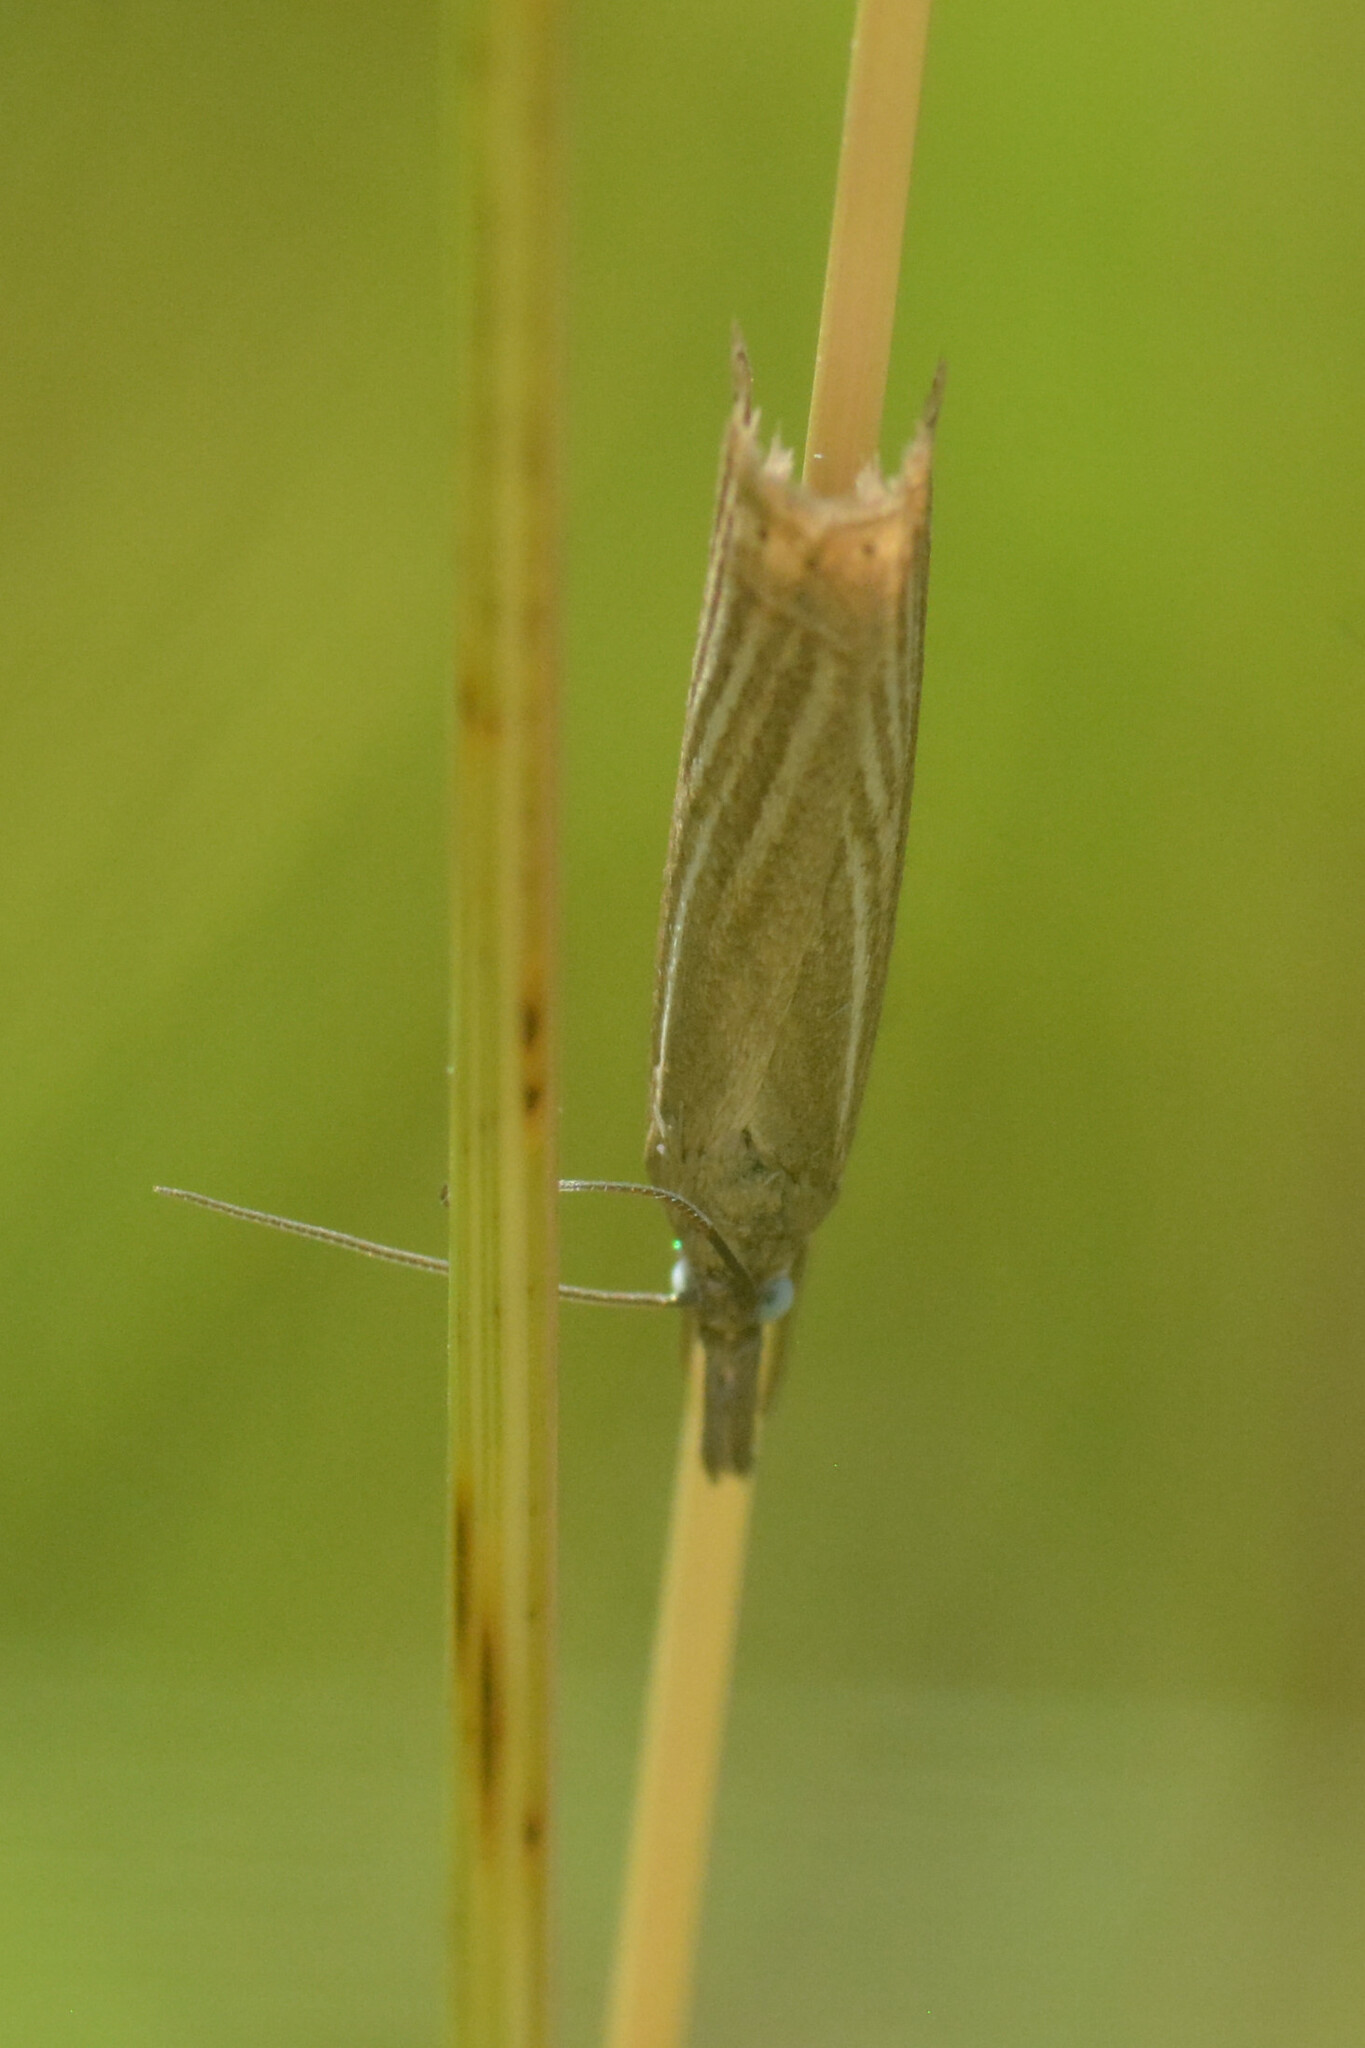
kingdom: Animalia
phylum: Arthropoda
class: Insecta
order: Lepidoptera
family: Crambidae
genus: Chrysoteuchia
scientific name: Chrysoteuchia culmella
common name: Garden grass-veneer
